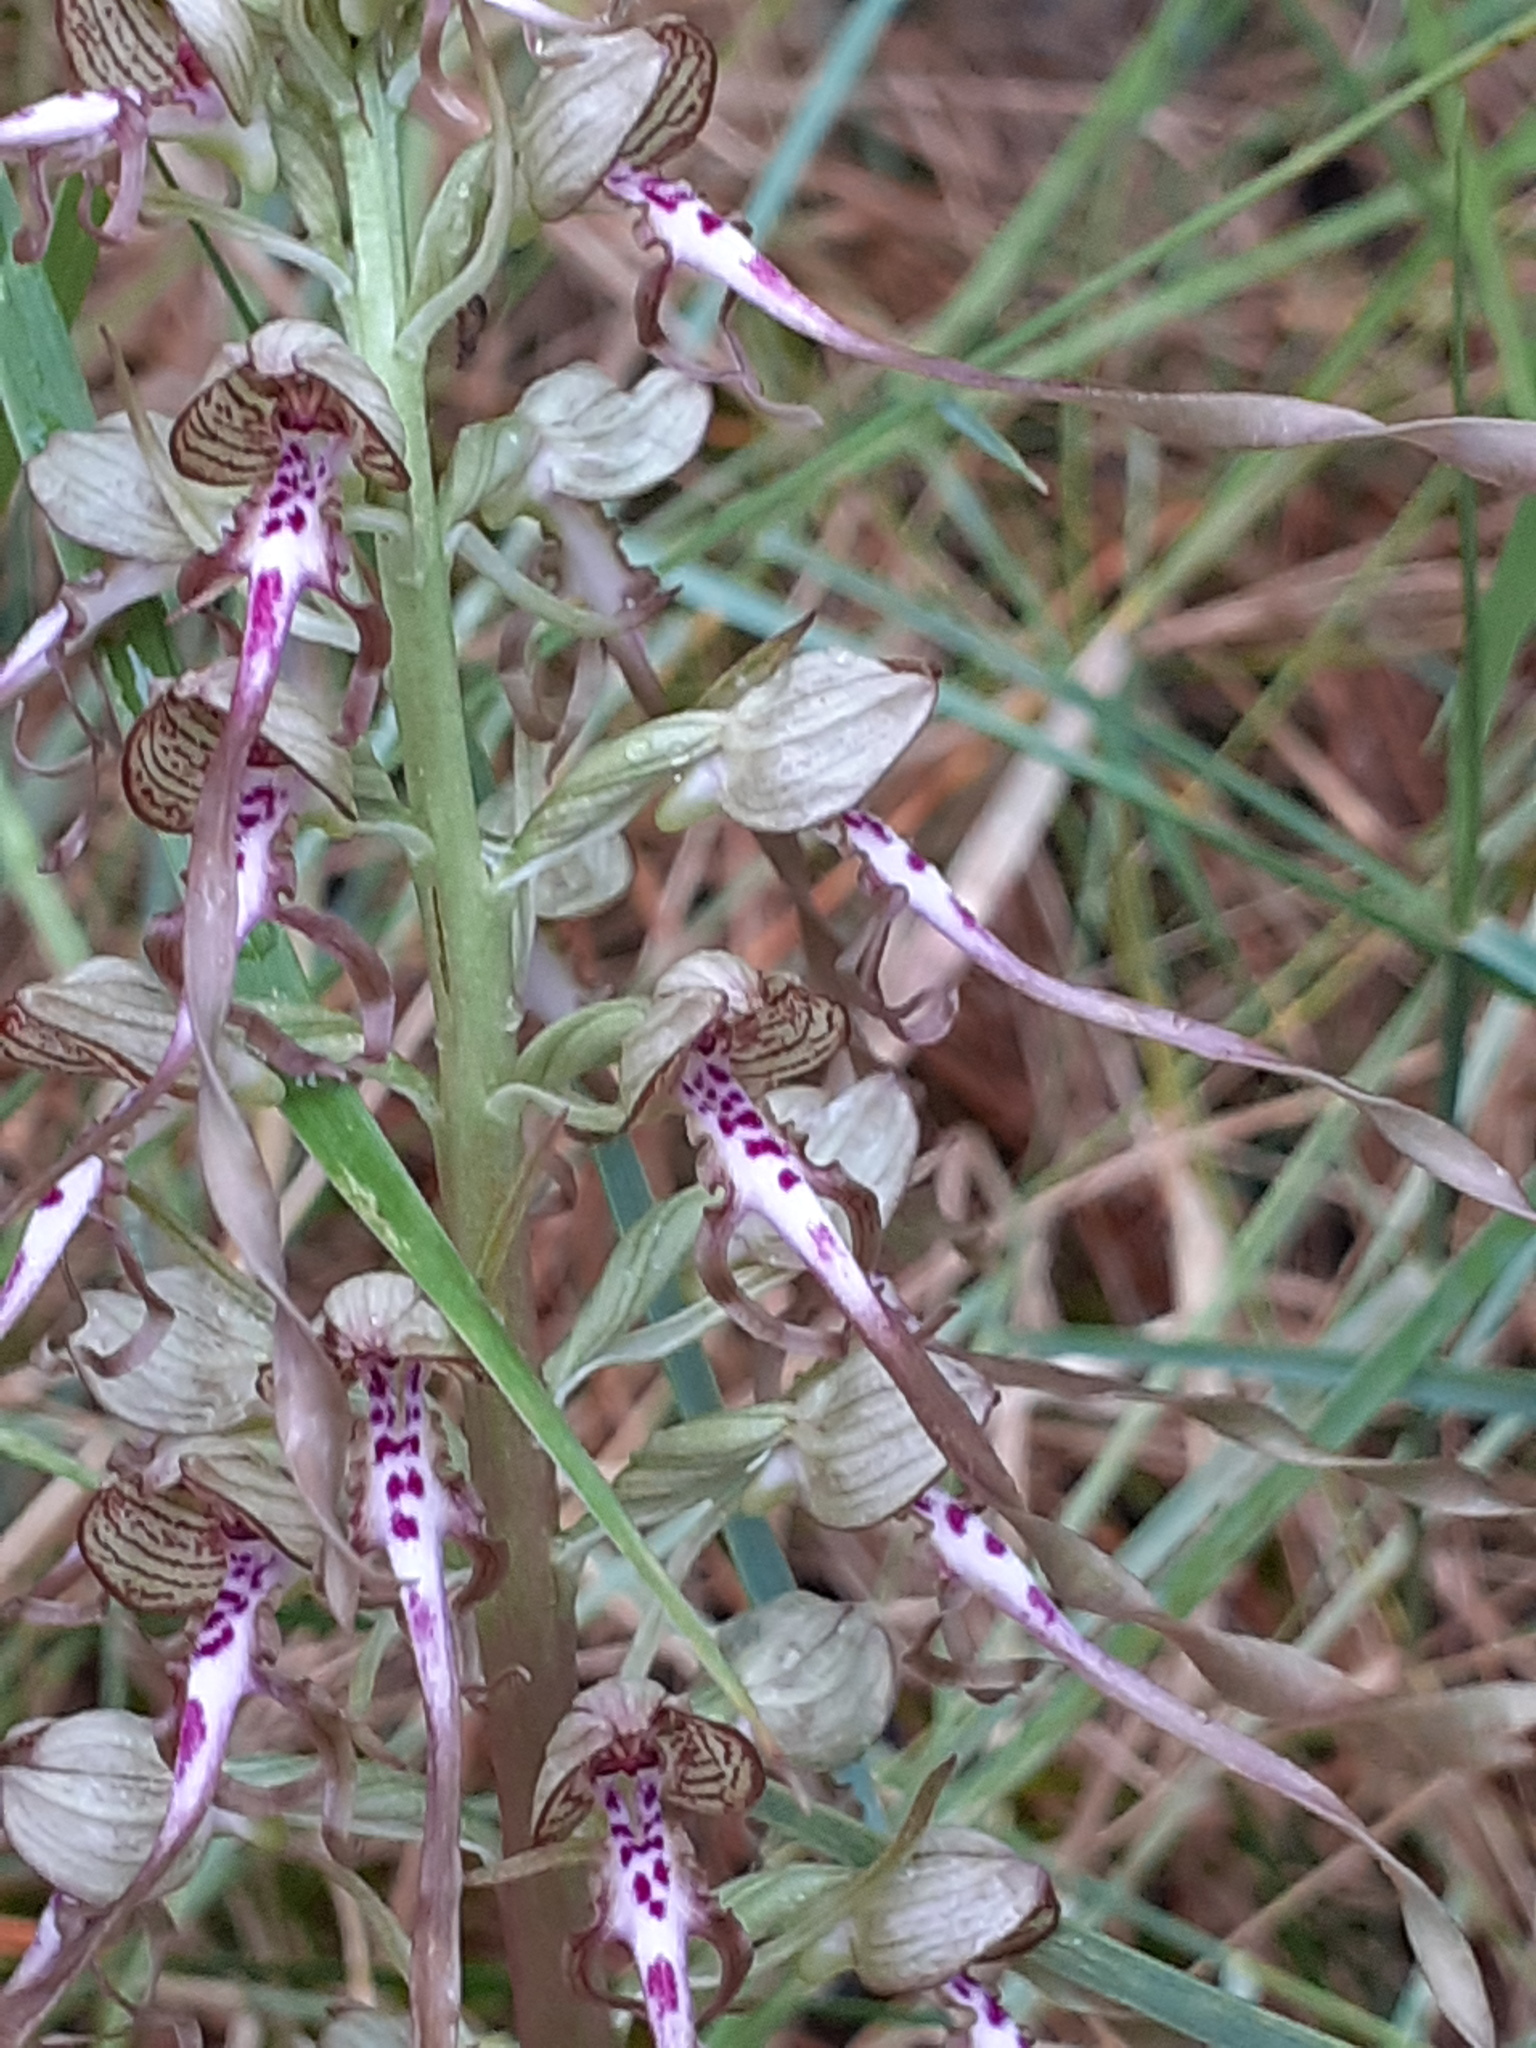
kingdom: Plantae
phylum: Tracheophyta
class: Liliopsida
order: Asparagales
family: Orchidaceae
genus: Himantoglossum
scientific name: Himantoglossum hircinum
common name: Lizard orchid
